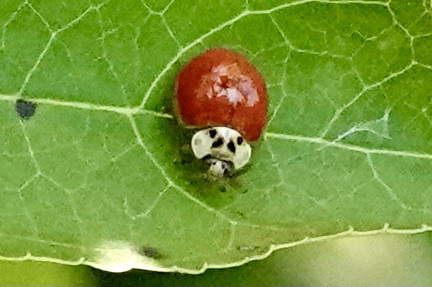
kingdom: Animalia
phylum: Arthropoda
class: Insecta
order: Coleoptera
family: Coccinellidae
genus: Harmonia
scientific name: Harmonia axyridis
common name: Harlequin ladybird
